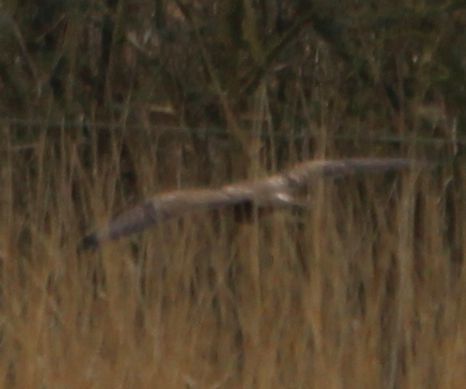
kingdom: Animalia
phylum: Chordata
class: Aves
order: Accipitriformes
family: Accipitridae
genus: Buteo
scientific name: Buteo buteo
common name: Common buzzard
